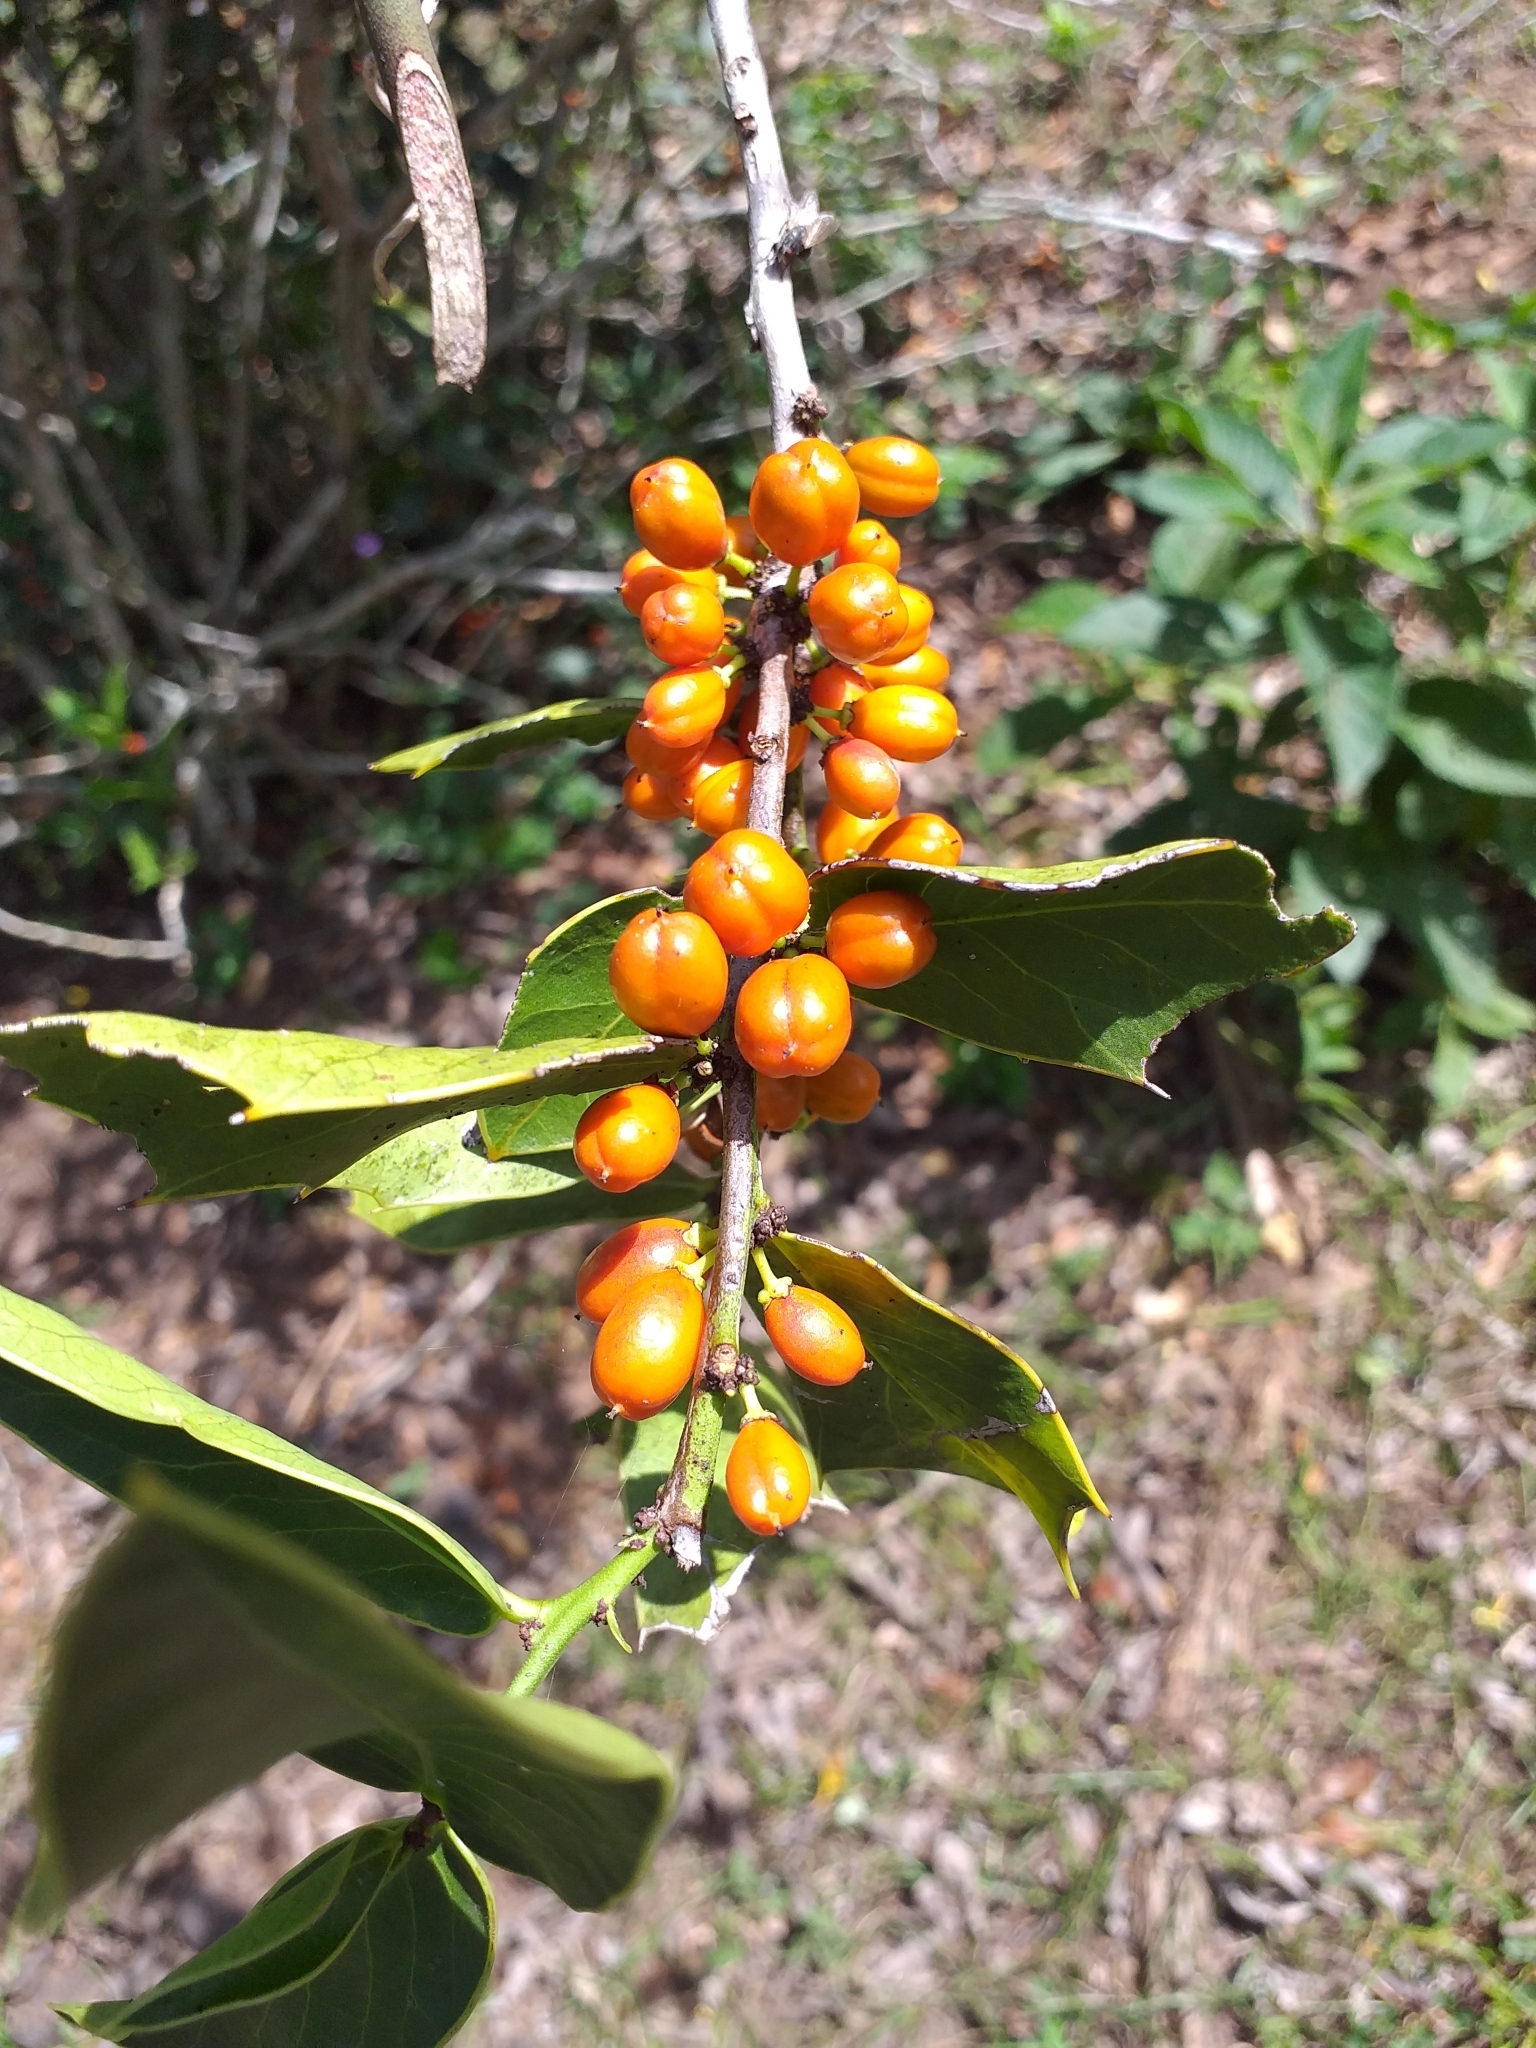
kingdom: Plantae
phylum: Tracheophyta
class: Magnoliopsida
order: Celastrales
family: Celastraceae
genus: Monteverdia
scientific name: Monteverdia
